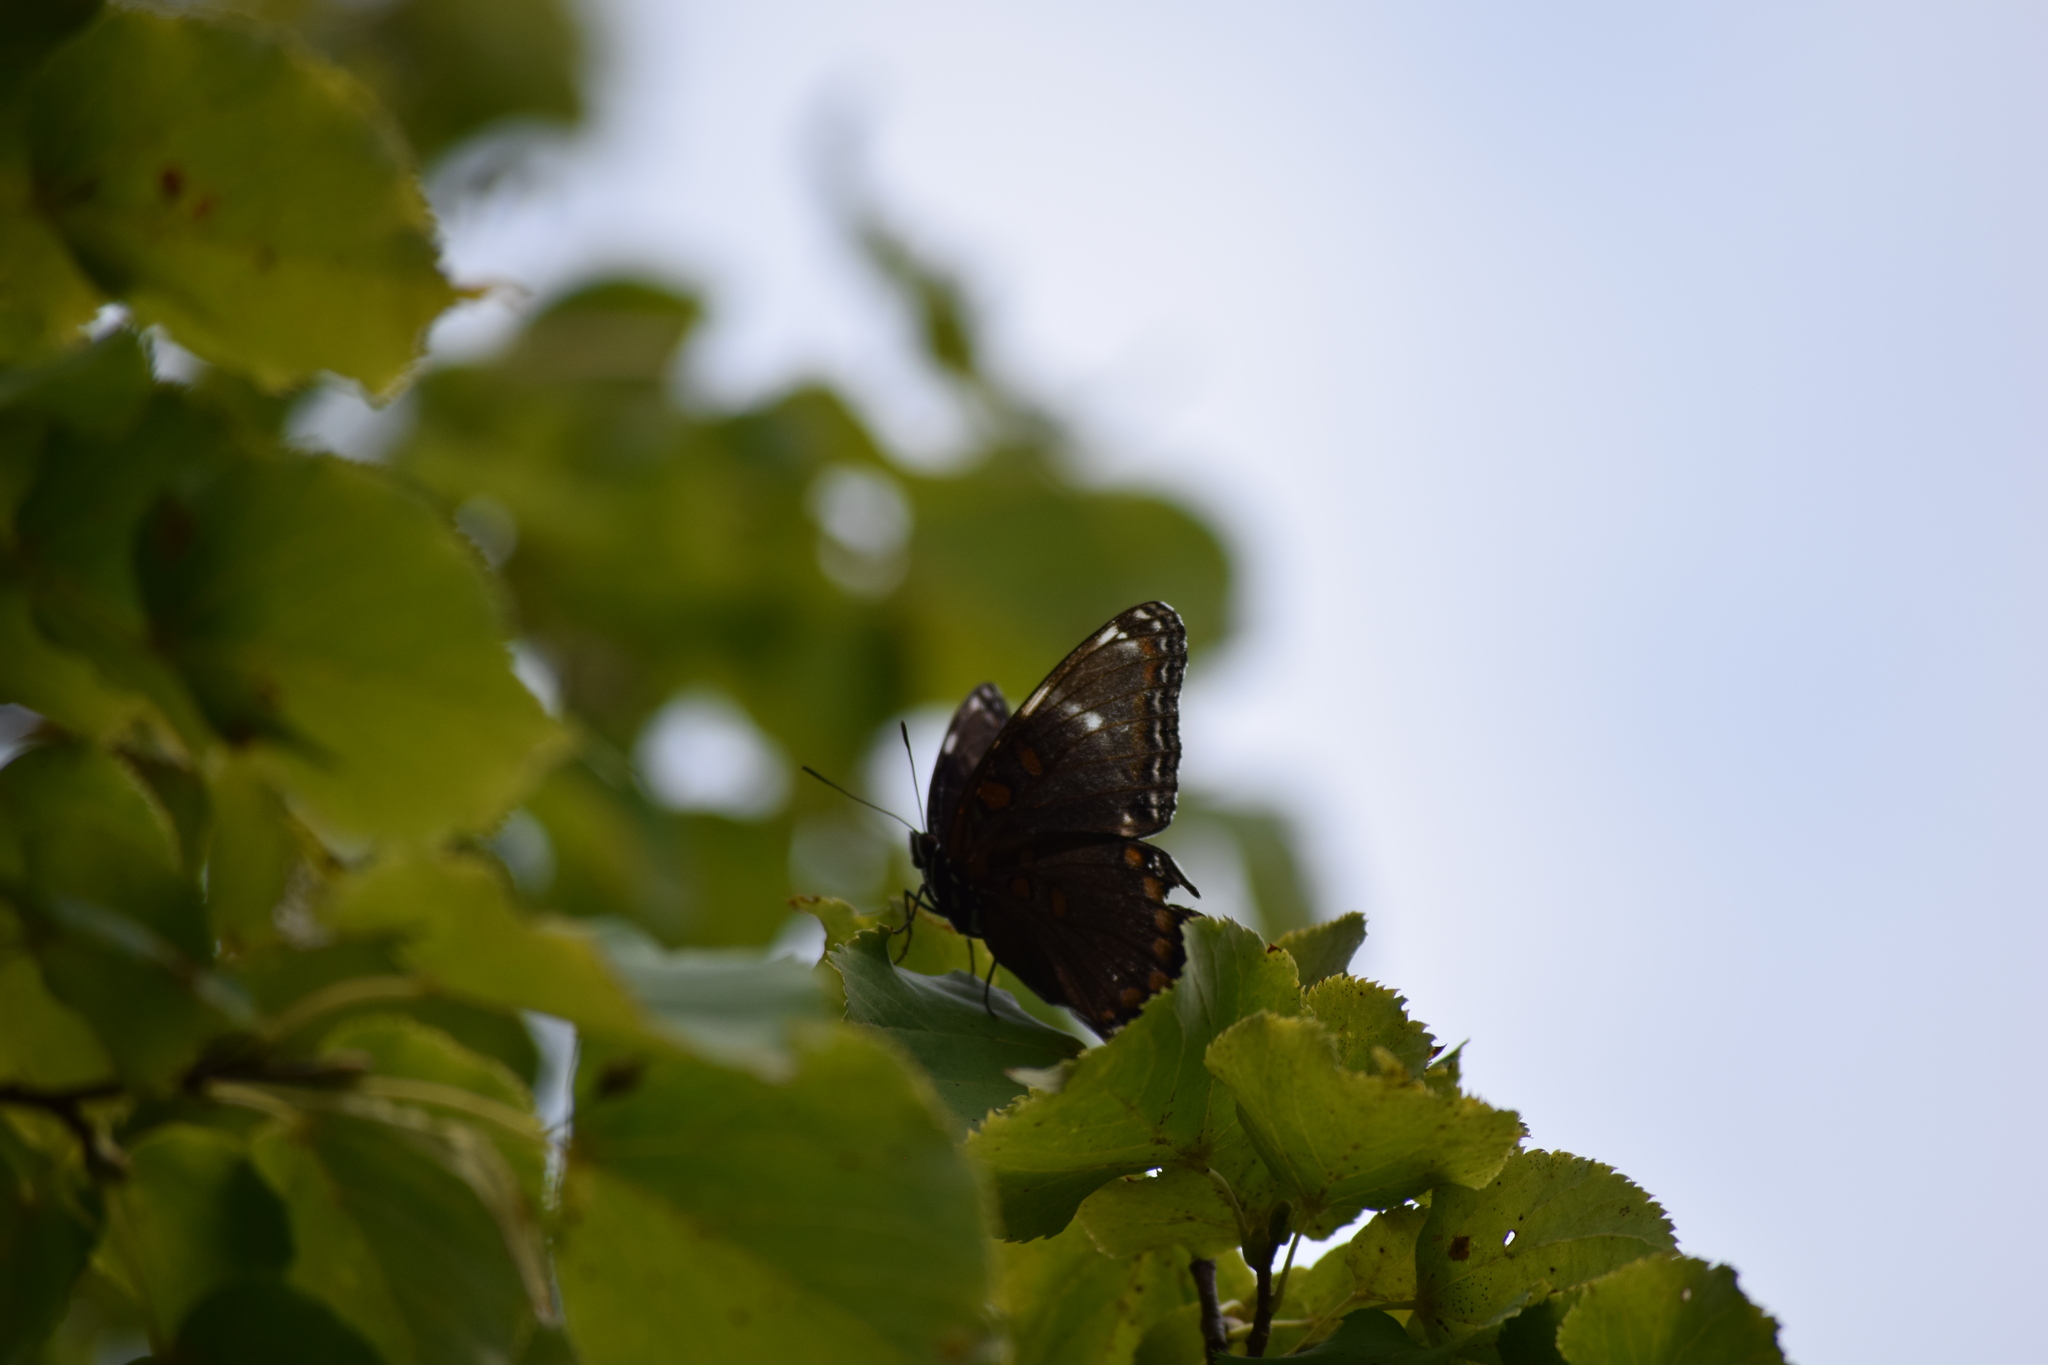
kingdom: Animalia
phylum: Arthropoda
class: Insecta
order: Lepidoptera
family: Nymphalidae
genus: Limenitis
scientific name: Limenitis
